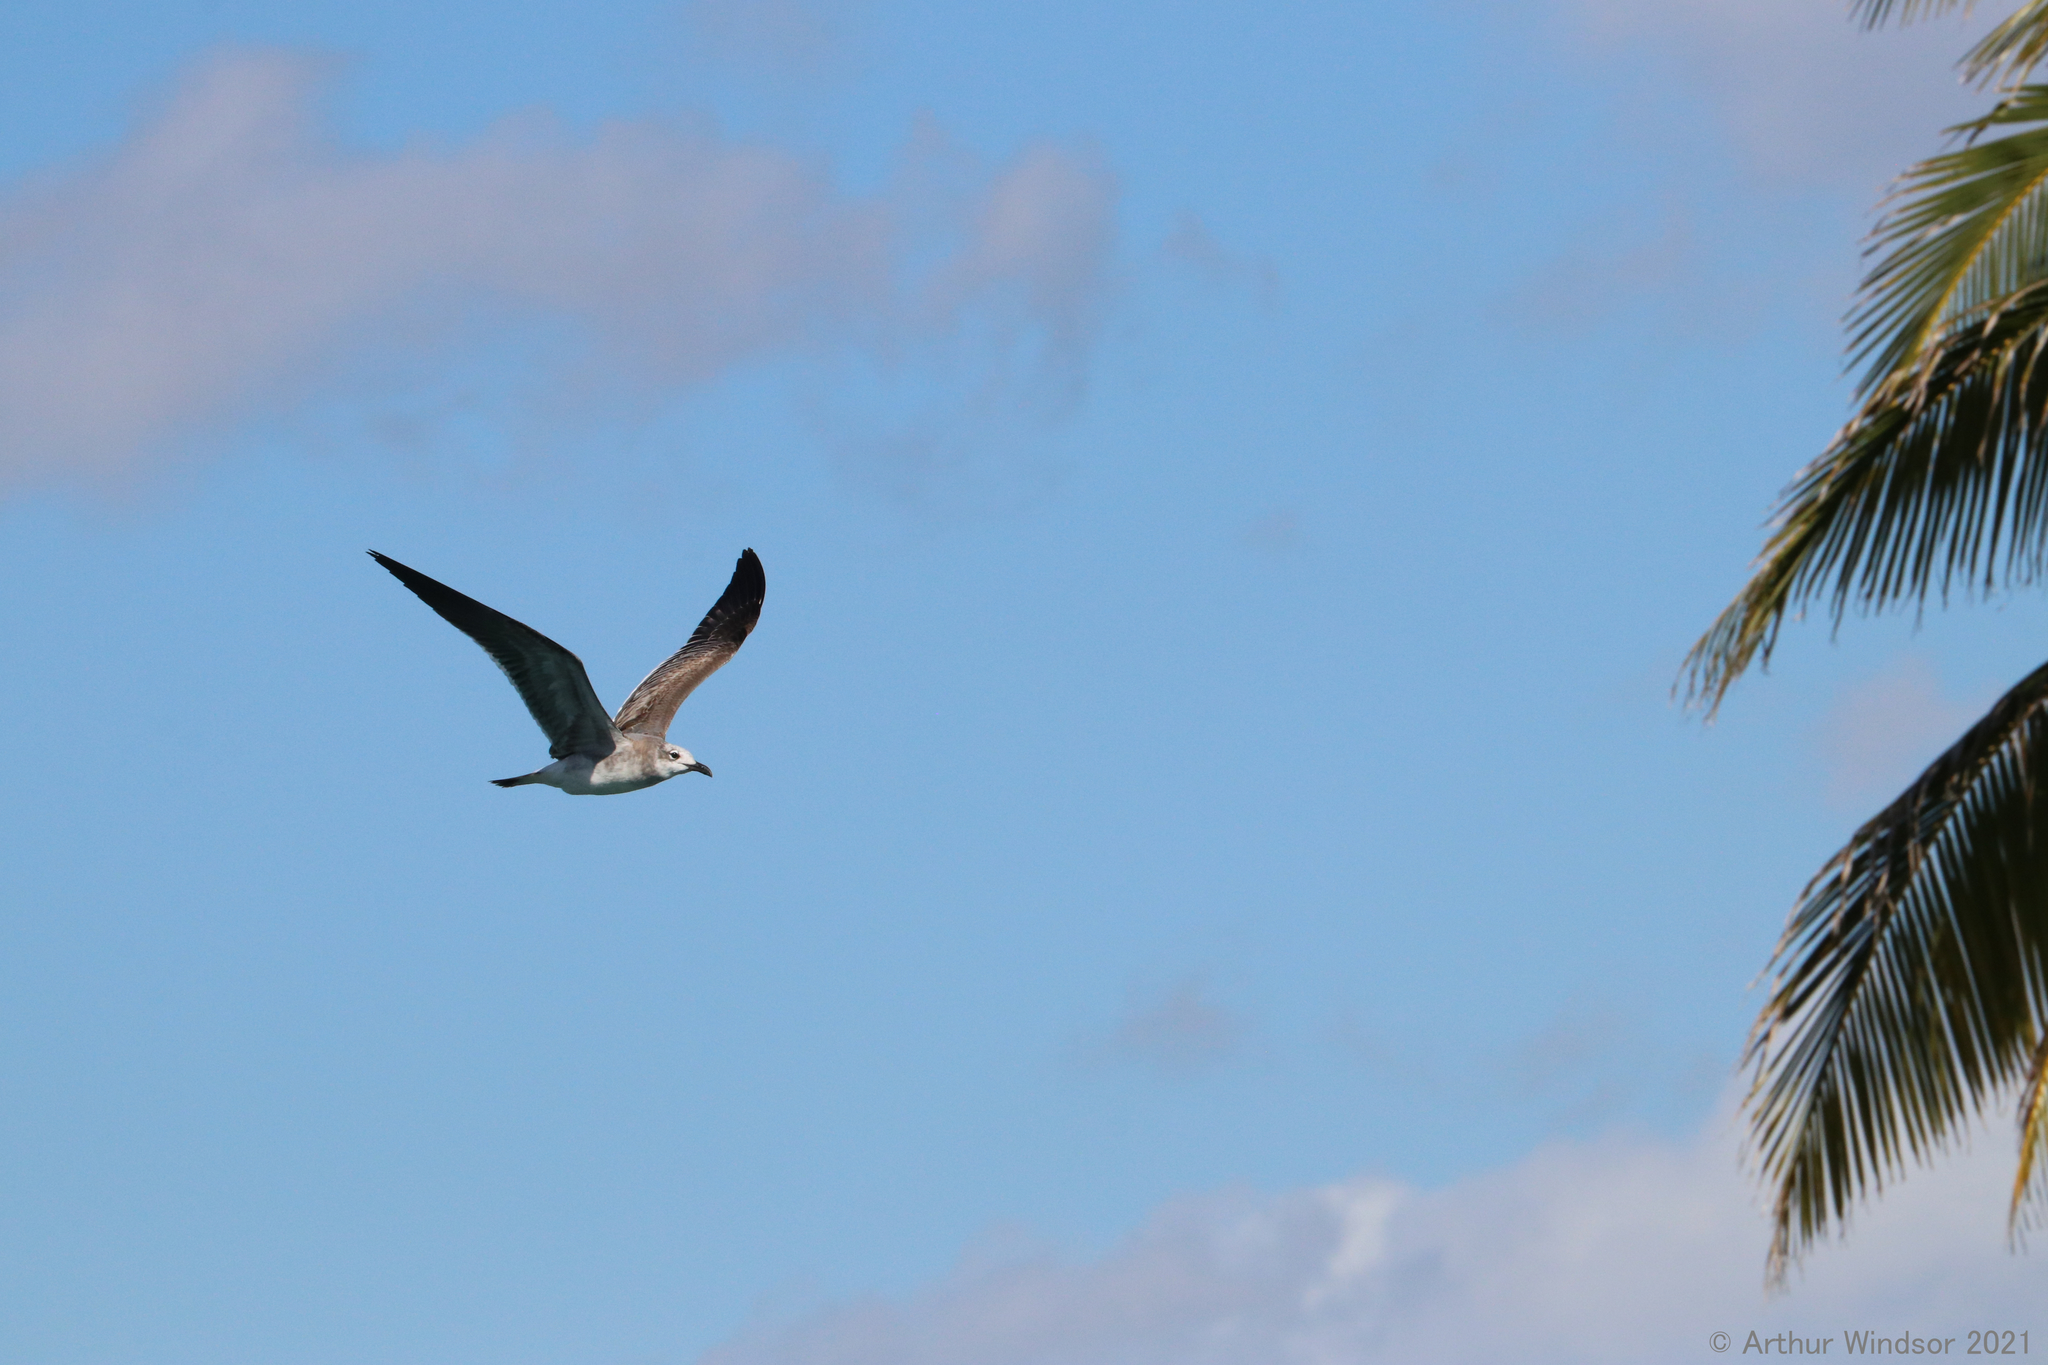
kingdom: Animalia
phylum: Chordata
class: Aves
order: Charadriiformes
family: Laridae
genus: Leucophaeus
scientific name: Leucophaeus atricilla
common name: Laughing gull
